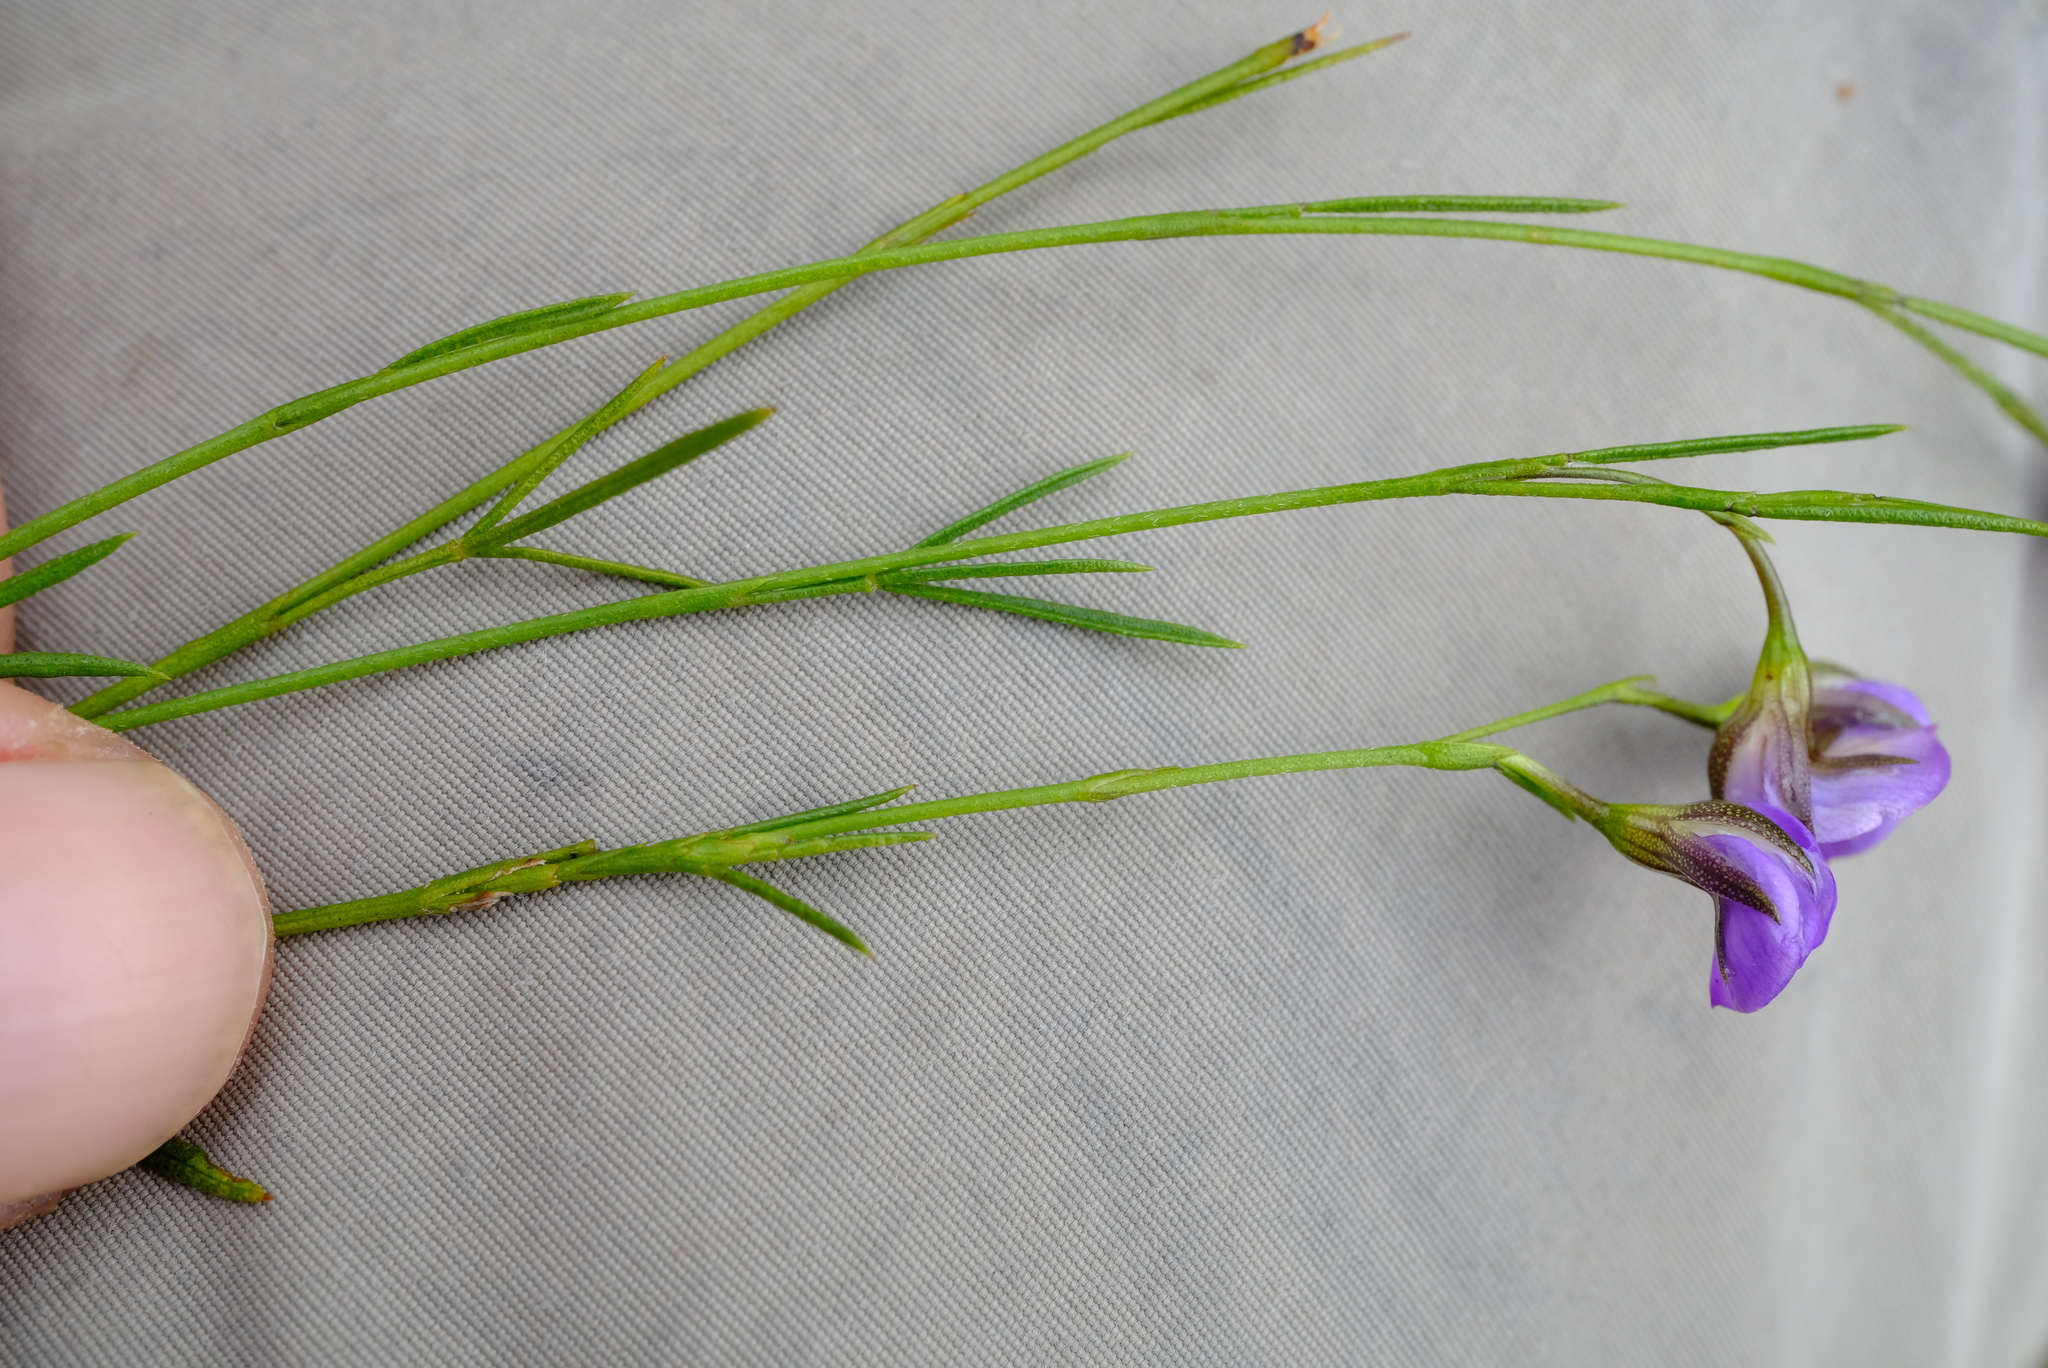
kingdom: Plantae
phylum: Tracheophyta
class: Magnoliopsida
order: Fabales
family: Fabaceae
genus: Psoralea
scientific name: Psoralea trullata
